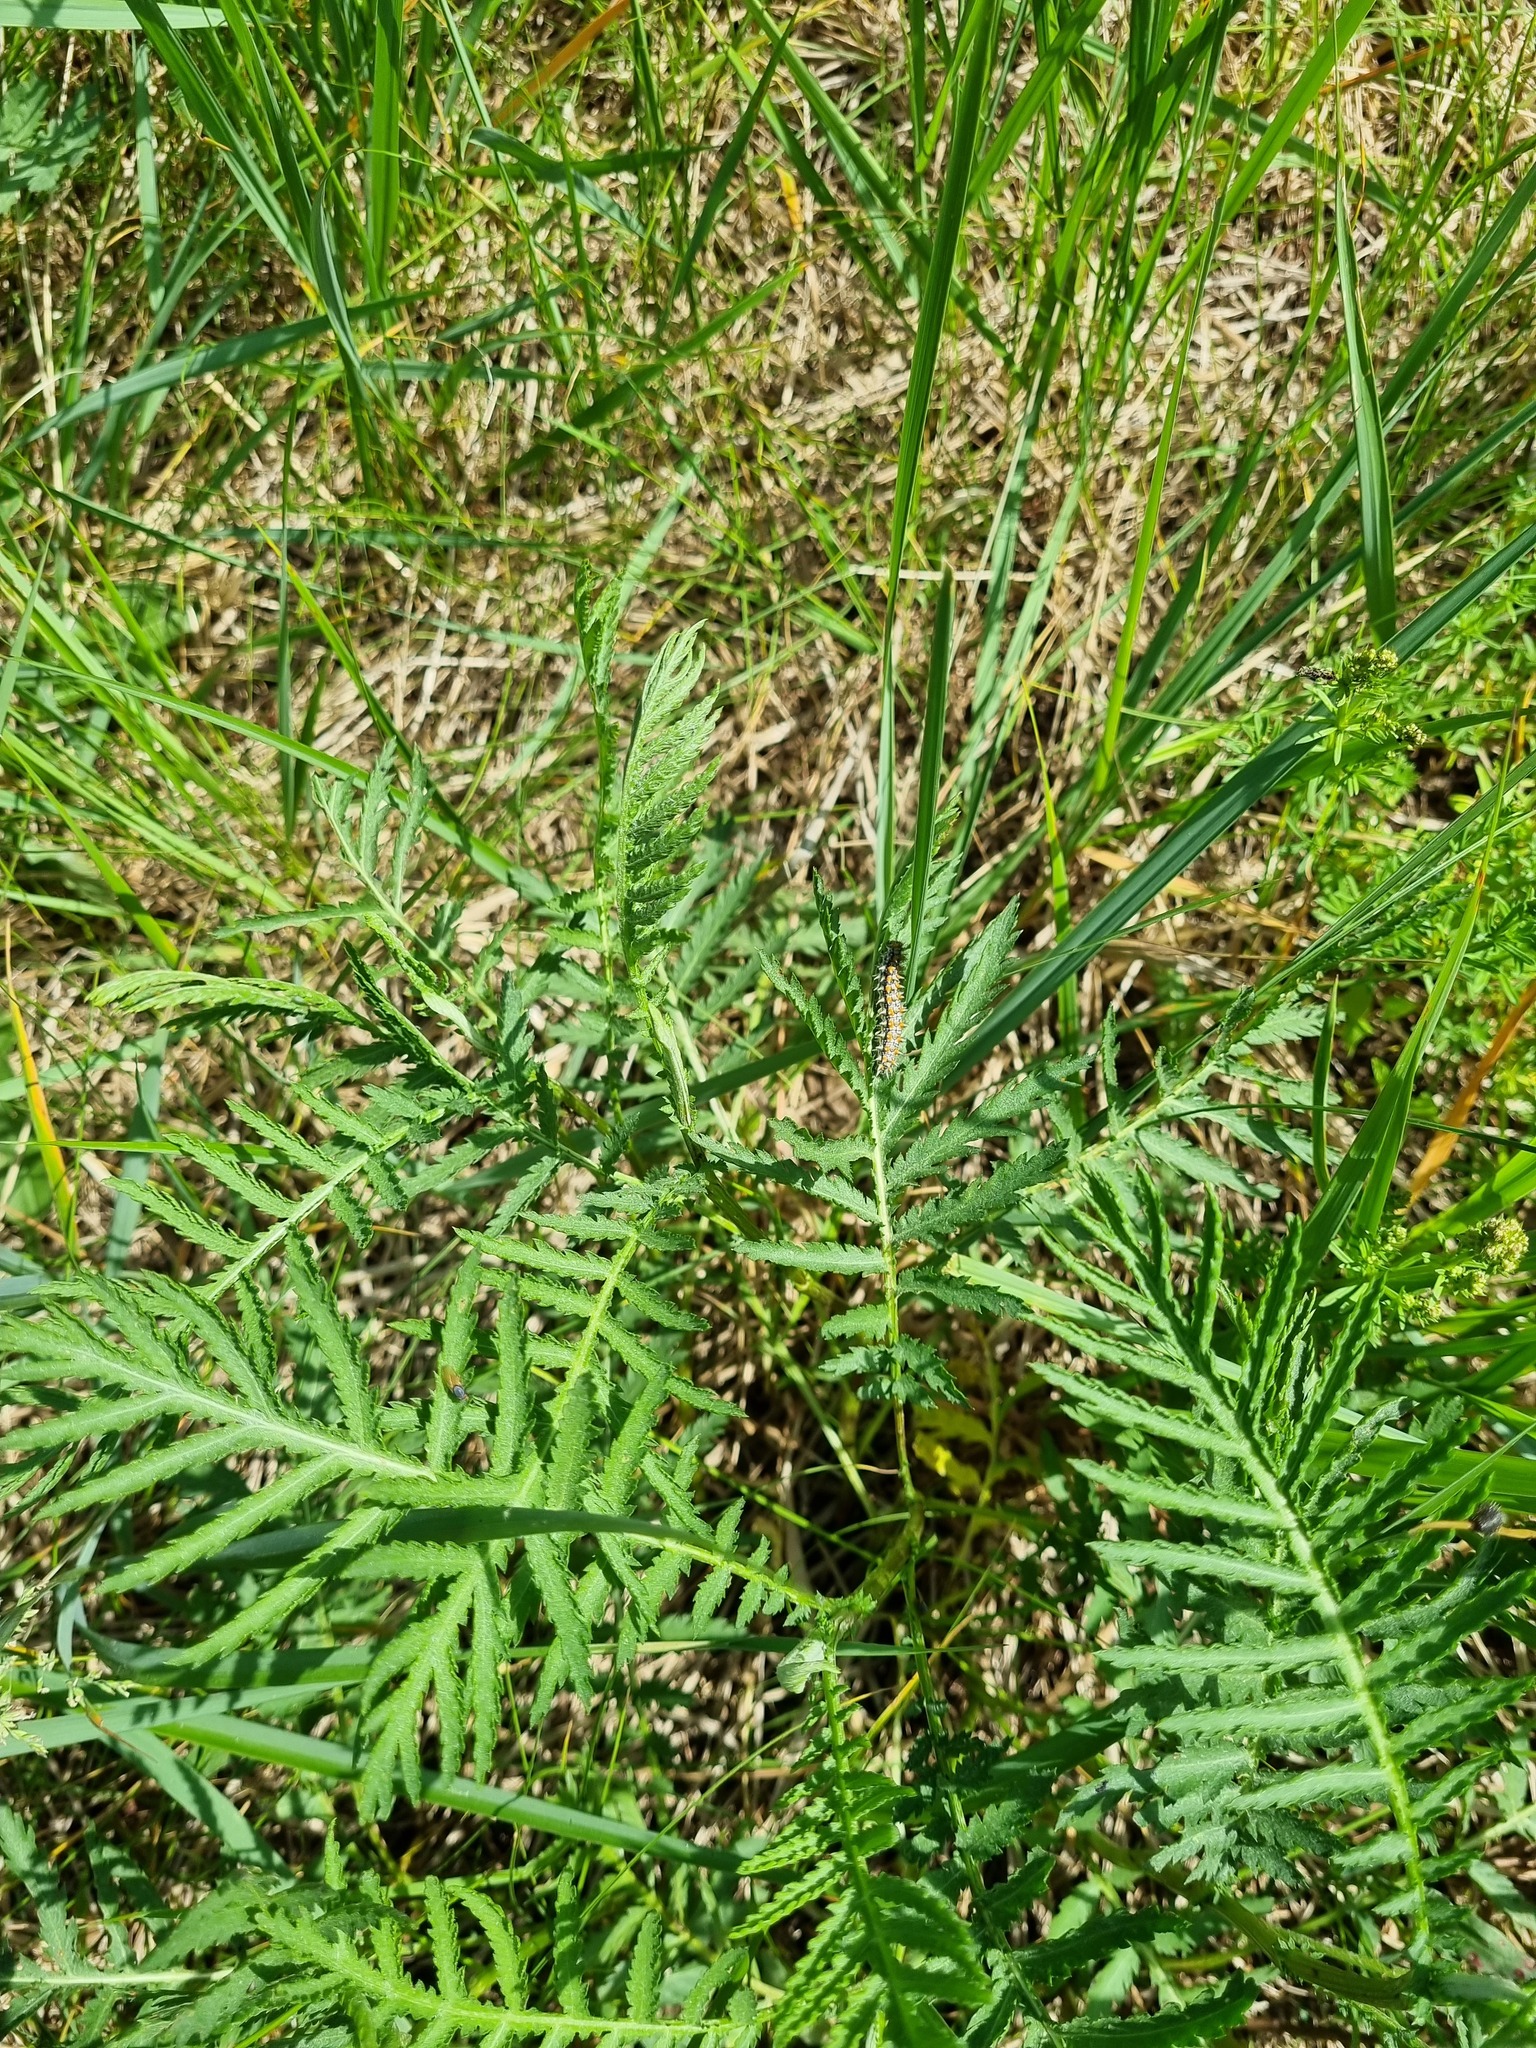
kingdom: Plantae
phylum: Tracheophyta
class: Magnoliopsida
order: Asterales
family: Asteraceae
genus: Tanacetum
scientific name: Tanacetum vulgare
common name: Common tansy
